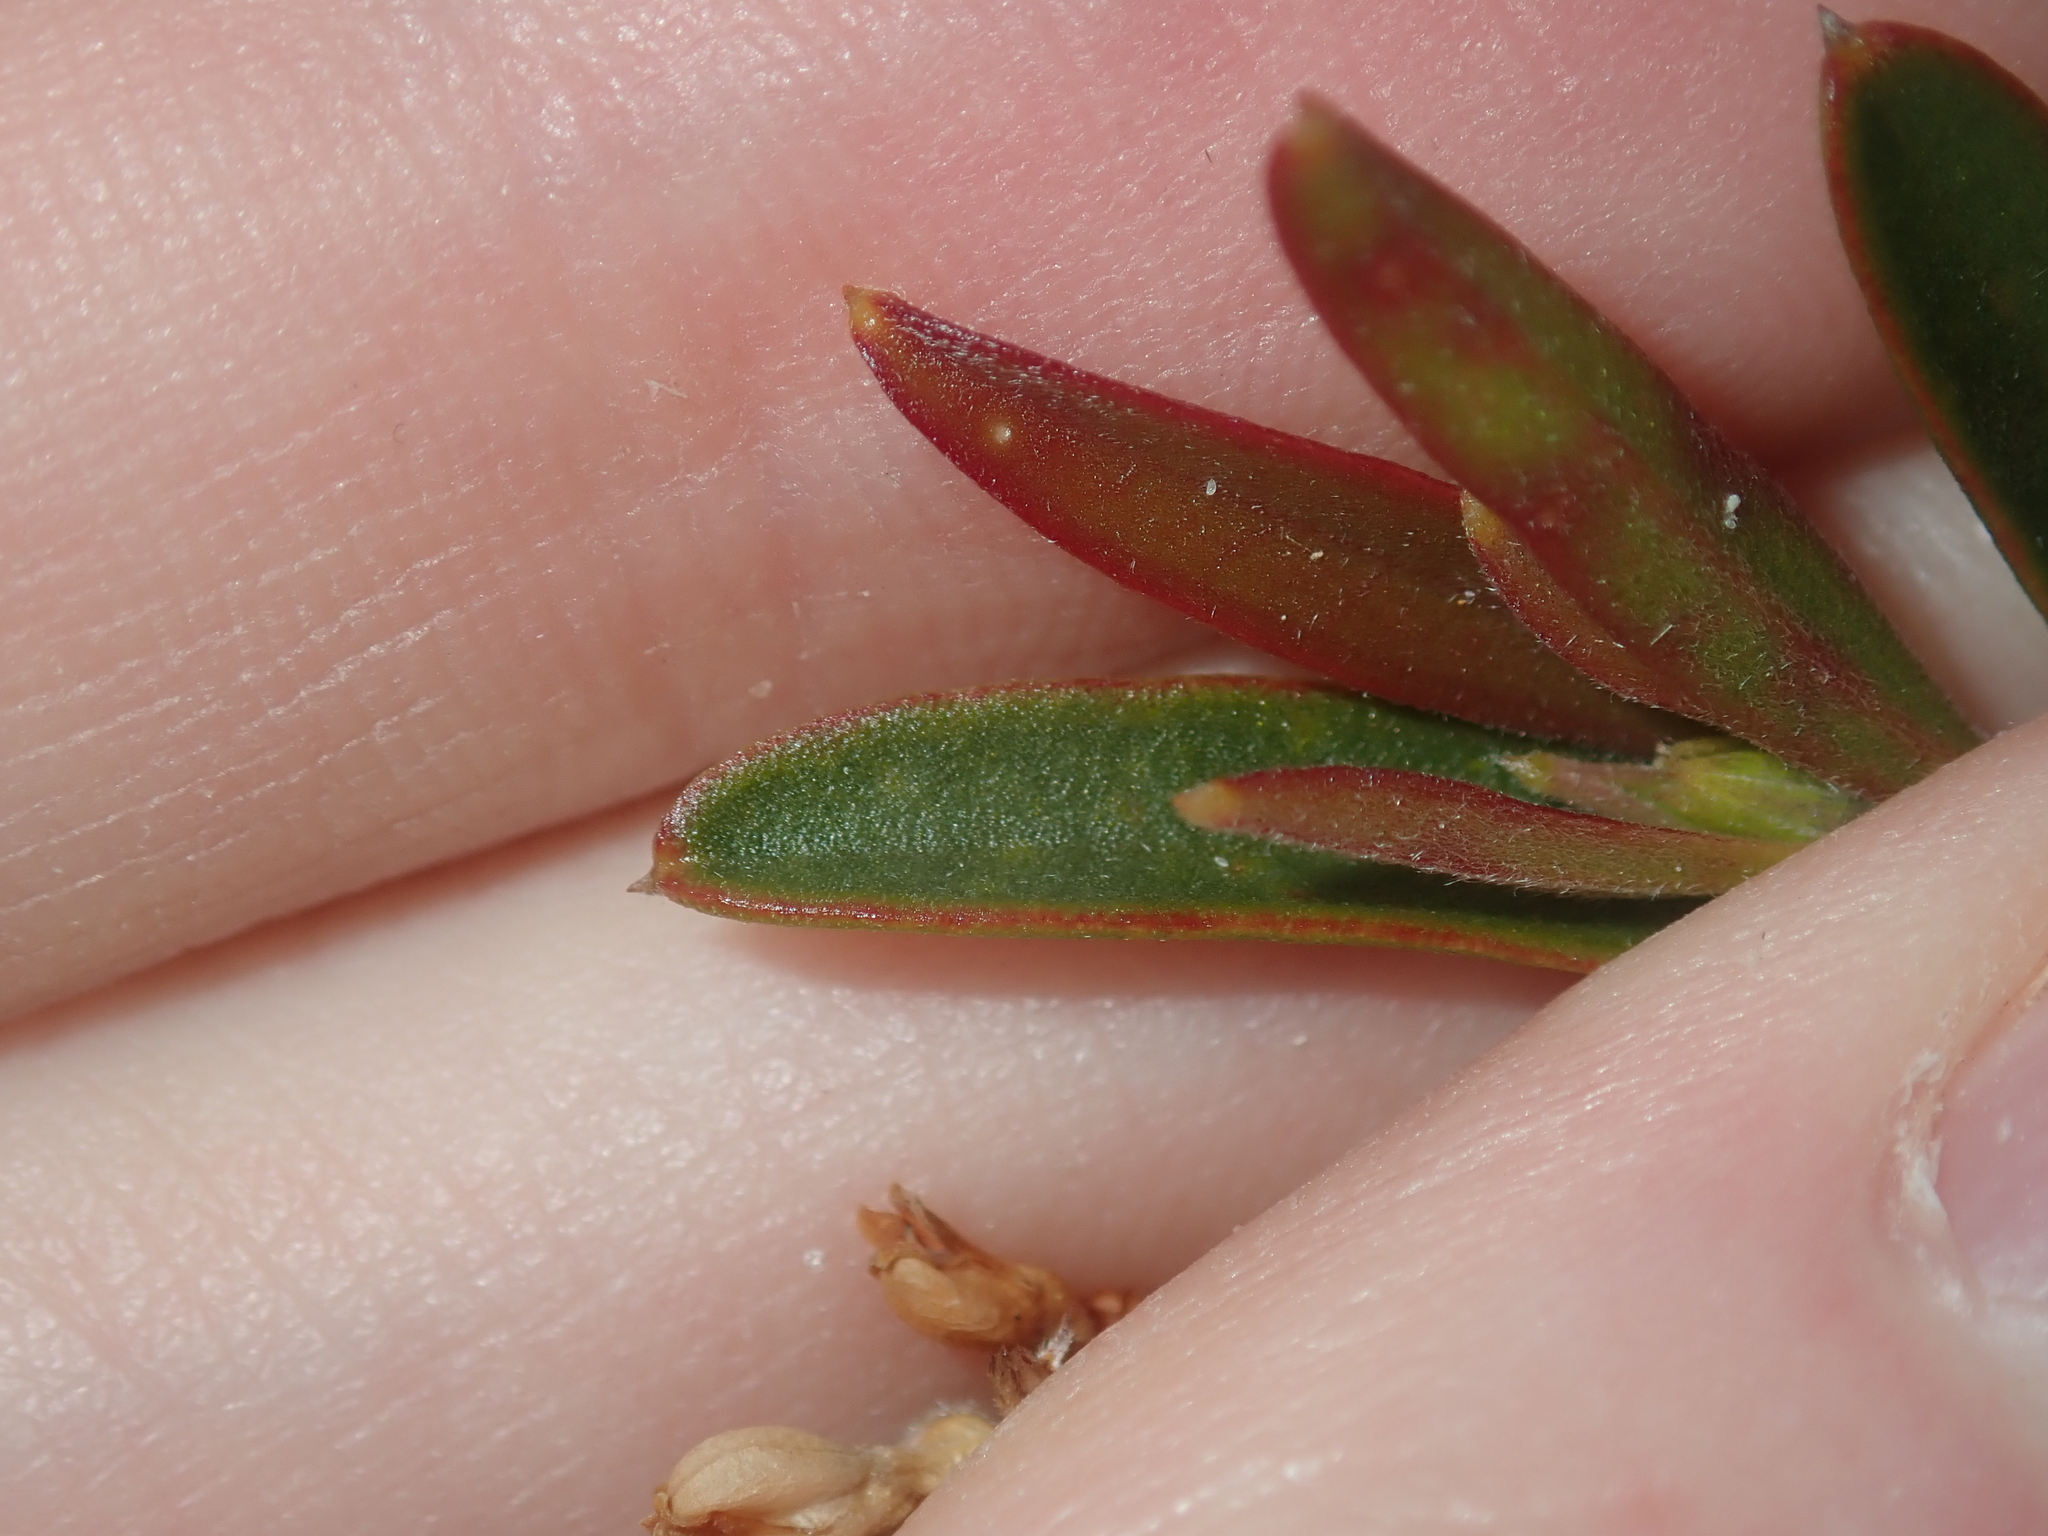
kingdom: Plantae
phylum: Tracheophyta
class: Magnoliopsida
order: Proteales
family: Proteaceae
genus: Conospermum
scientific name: Conospermum nervosum
